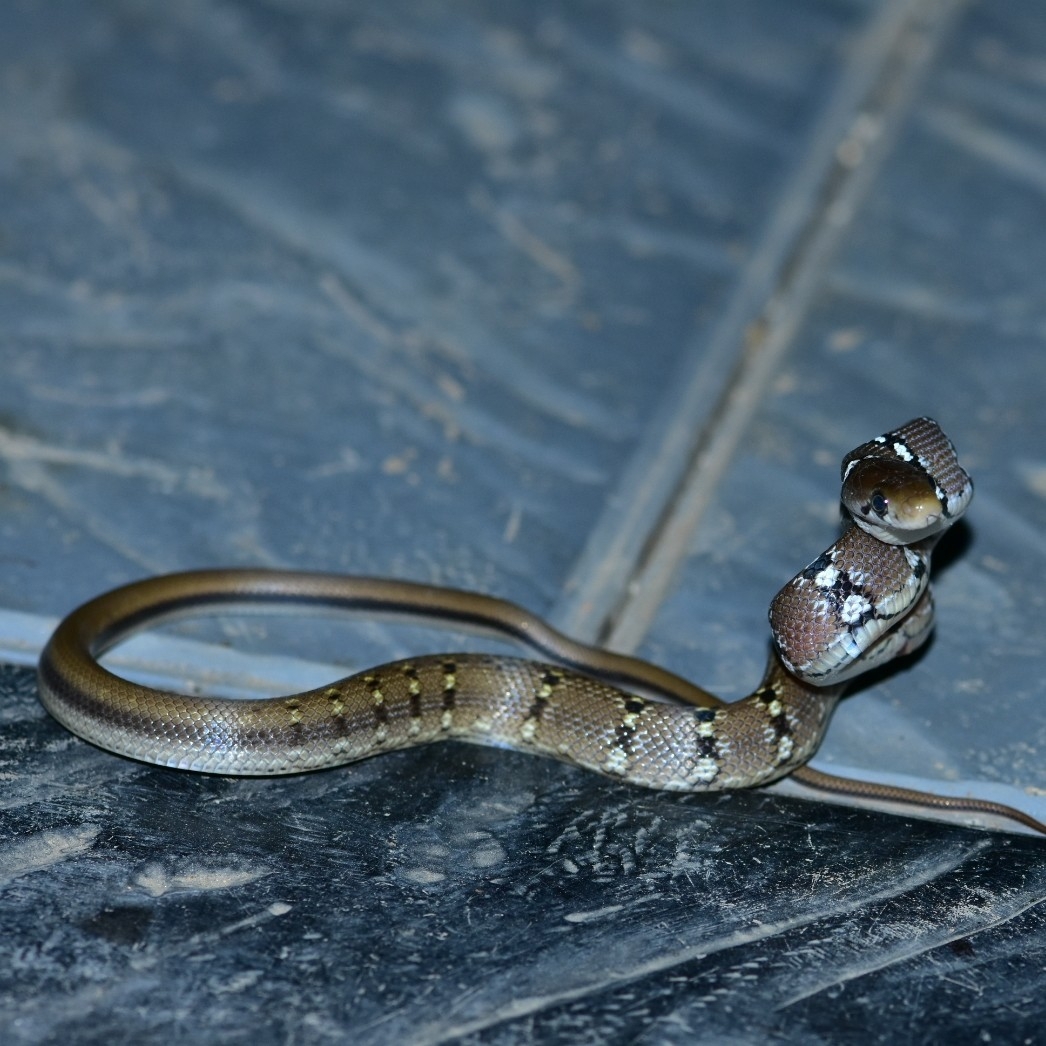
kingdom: Animalia
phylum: Chordata
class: Squamata
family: Colubridae
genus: Coelognathus
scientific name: Coelognathus helena
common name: Trinket snake
